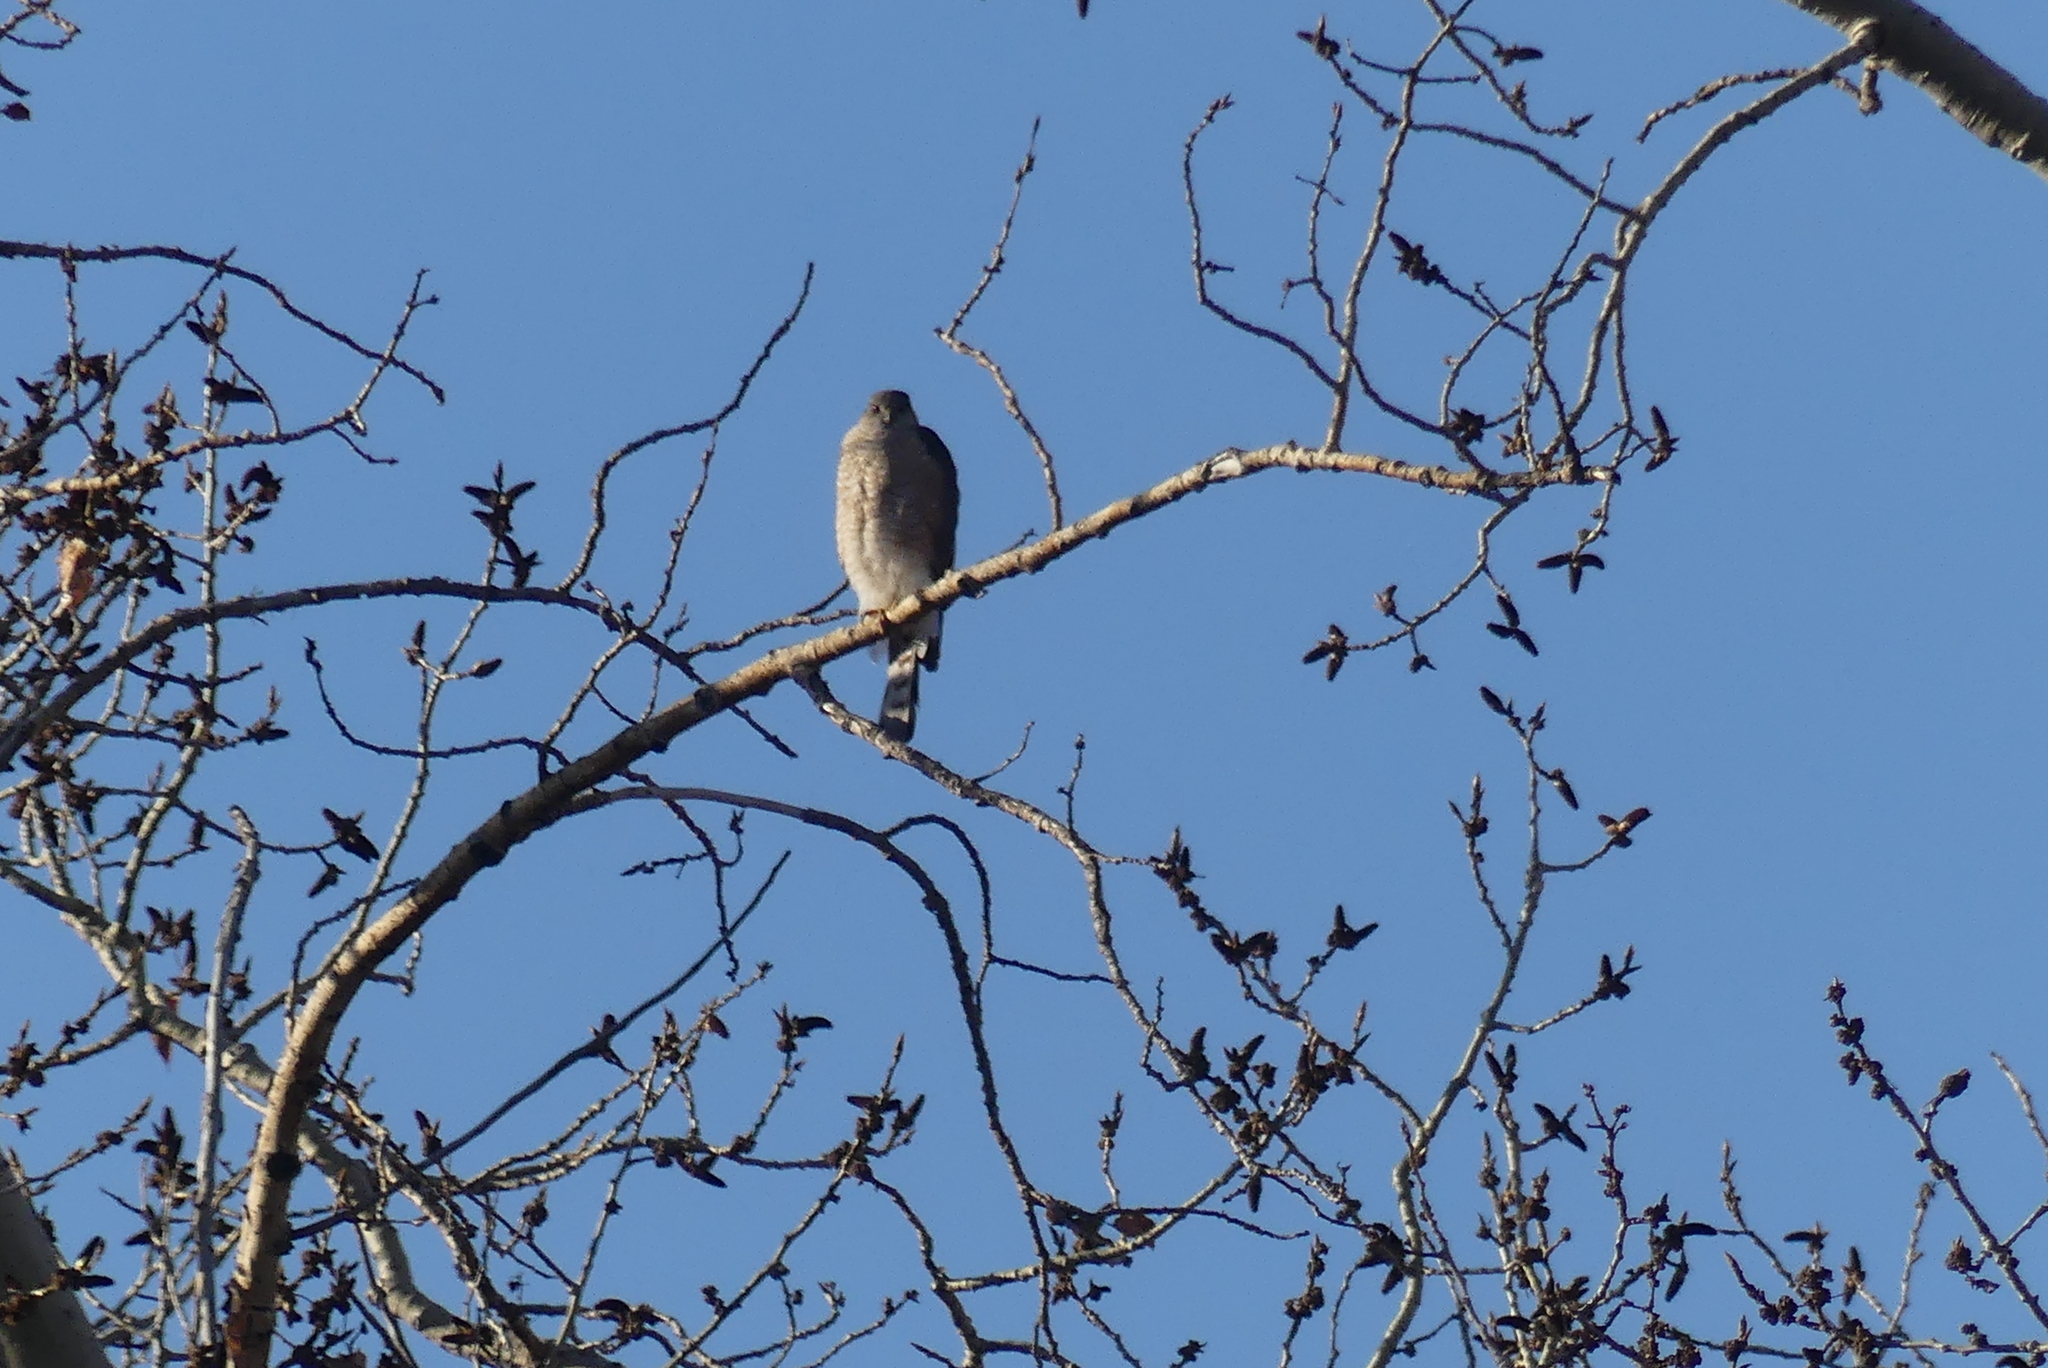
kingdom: Animalia
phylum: Chordata
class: Aves
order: Accipitriformes
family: Accipitridae
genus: Accipiter
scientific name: Accipiter striatus
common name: Sharp-shinned hawk
